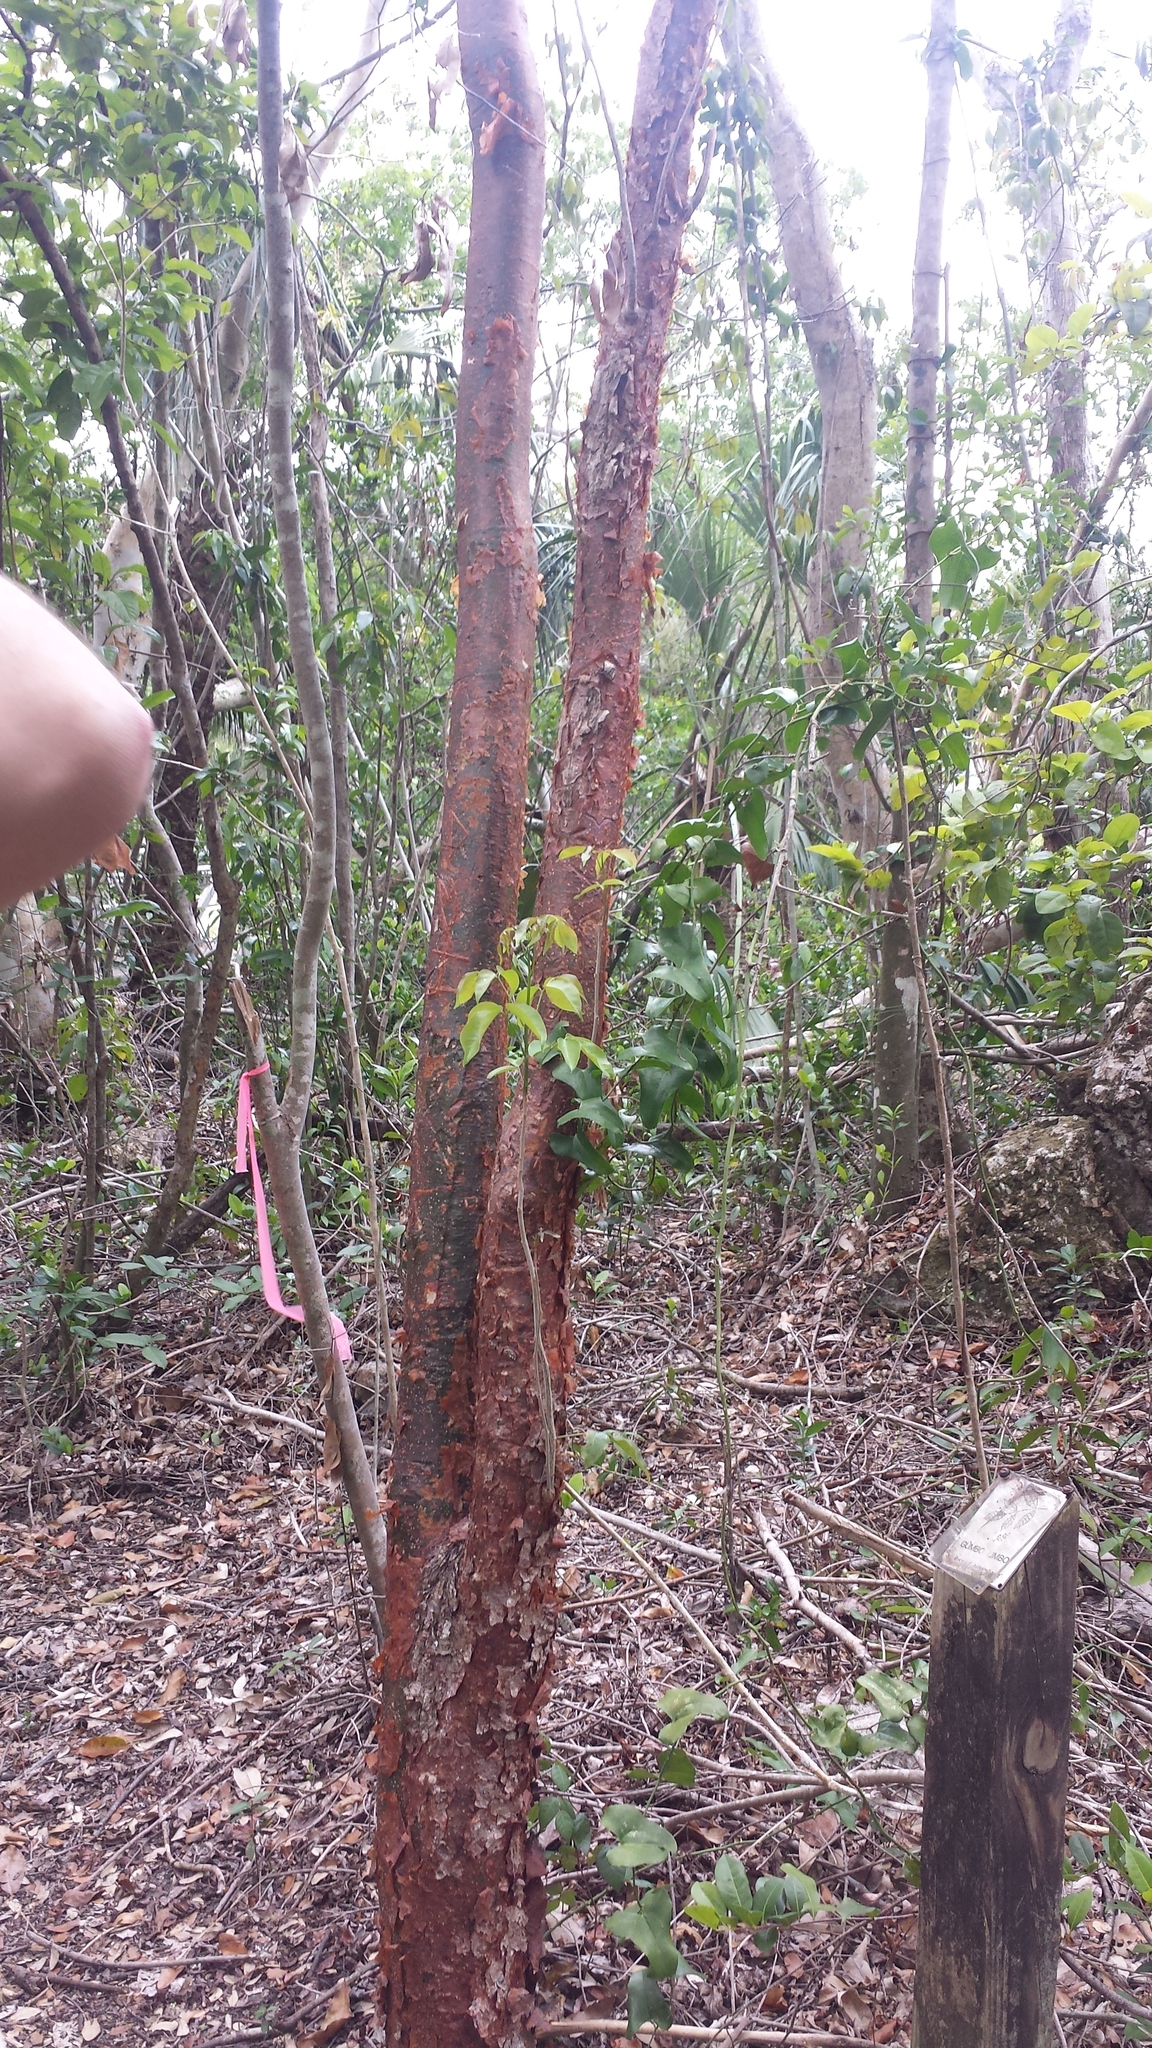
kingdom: Plantae
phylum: Tracheophyta
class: Magnoliopsida
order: Sapindales
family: Burseraceae
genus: Bursera
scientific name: Bursera simaruba
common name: Turpentine tree
